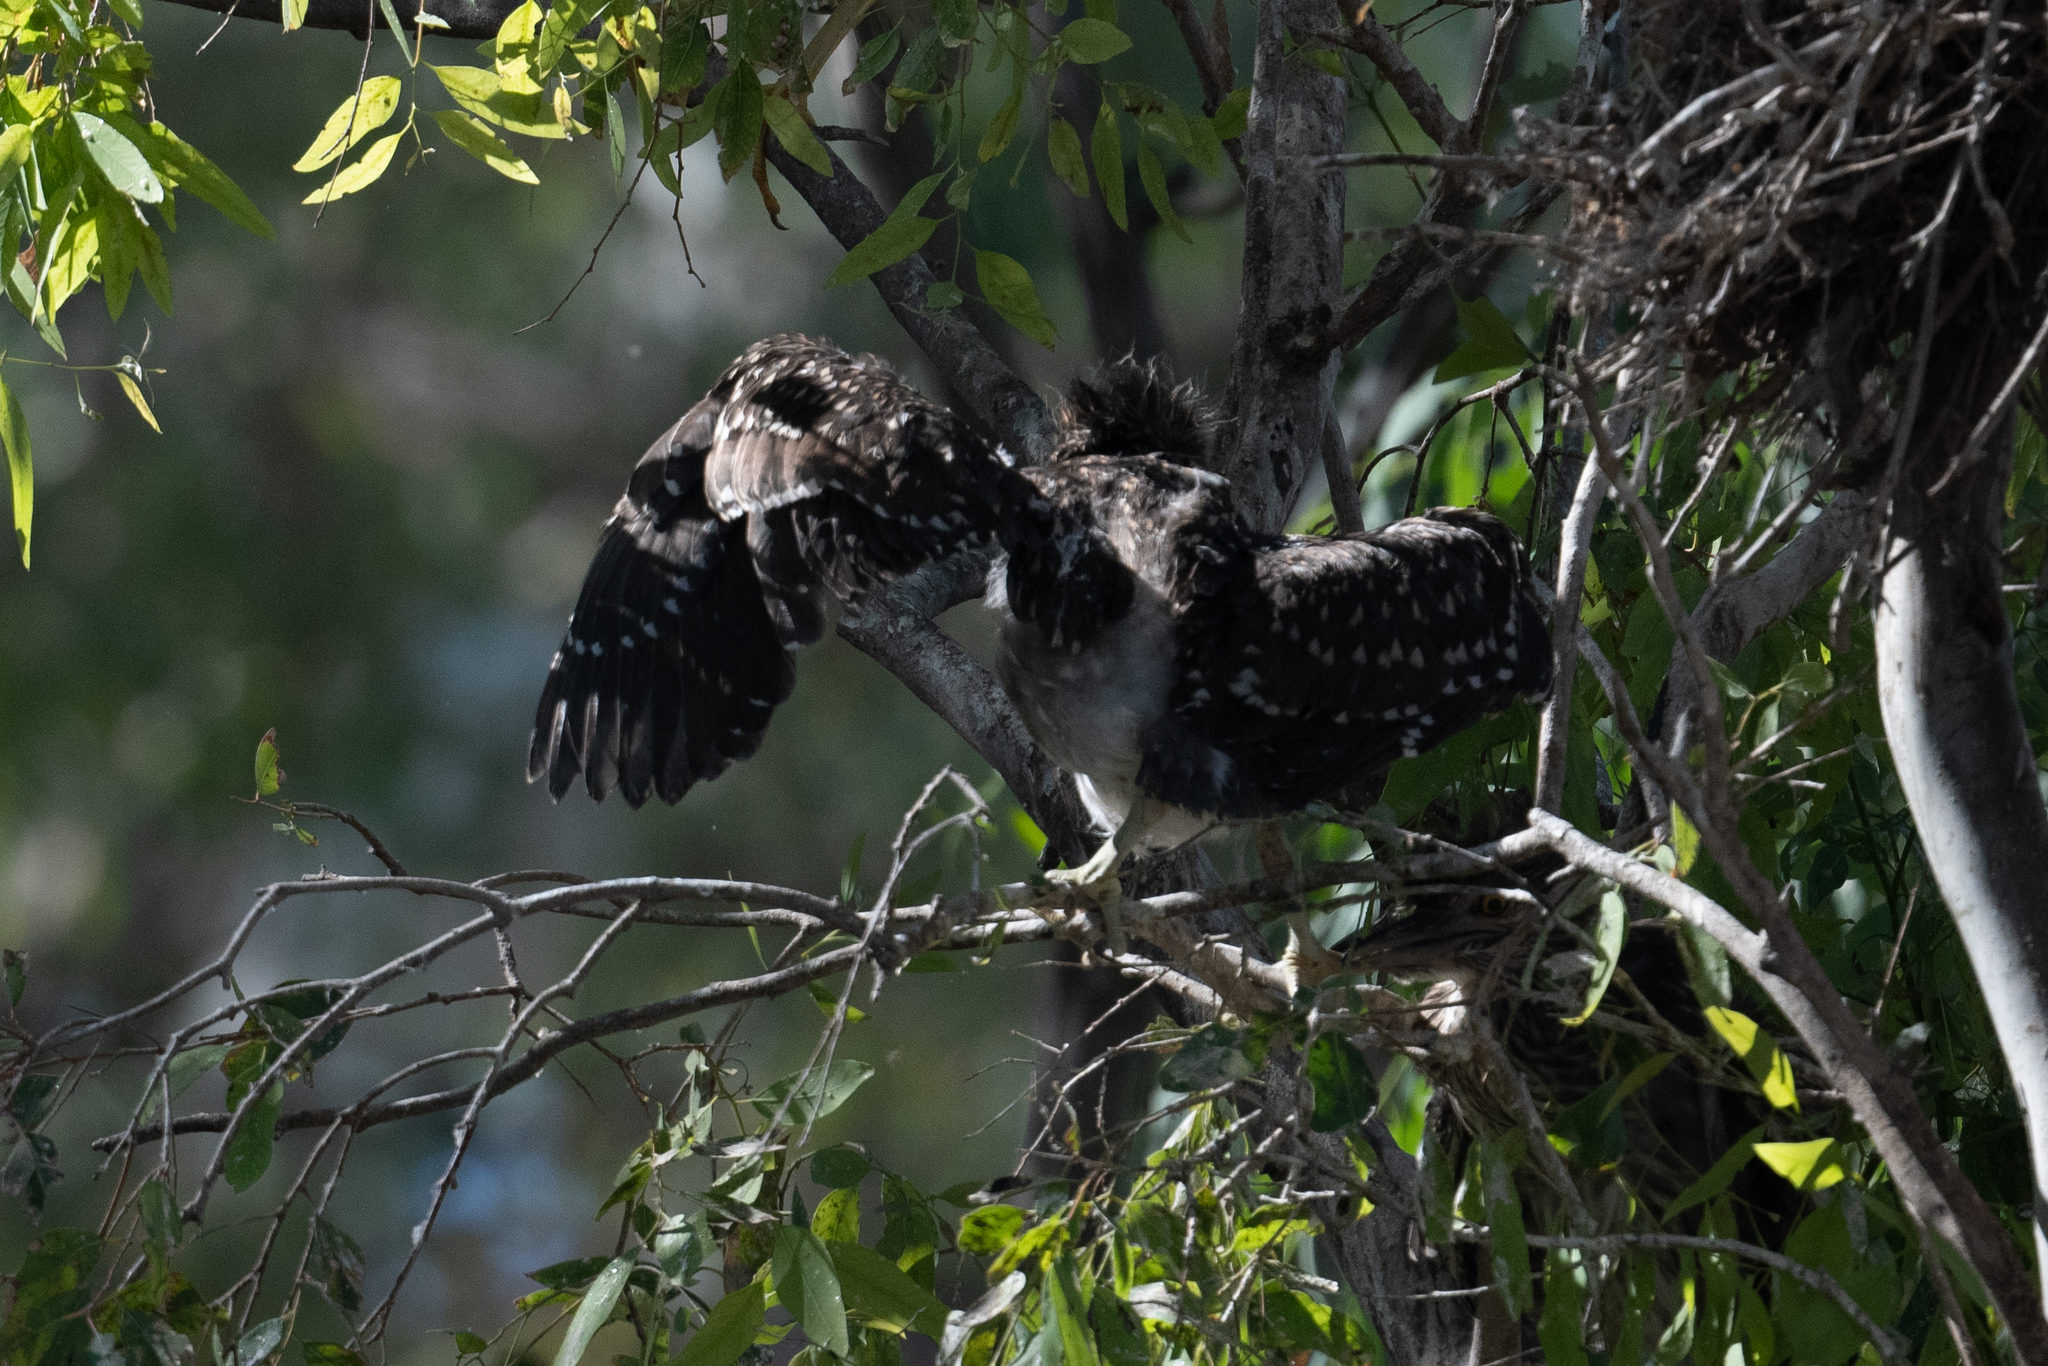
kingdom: Animalia
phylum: Chordata
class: Aves
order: Pelecaniformes
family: Ardeidae
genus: Nycticorax
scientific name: Nycticorax nycticorax
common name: Black-crowned night heron
